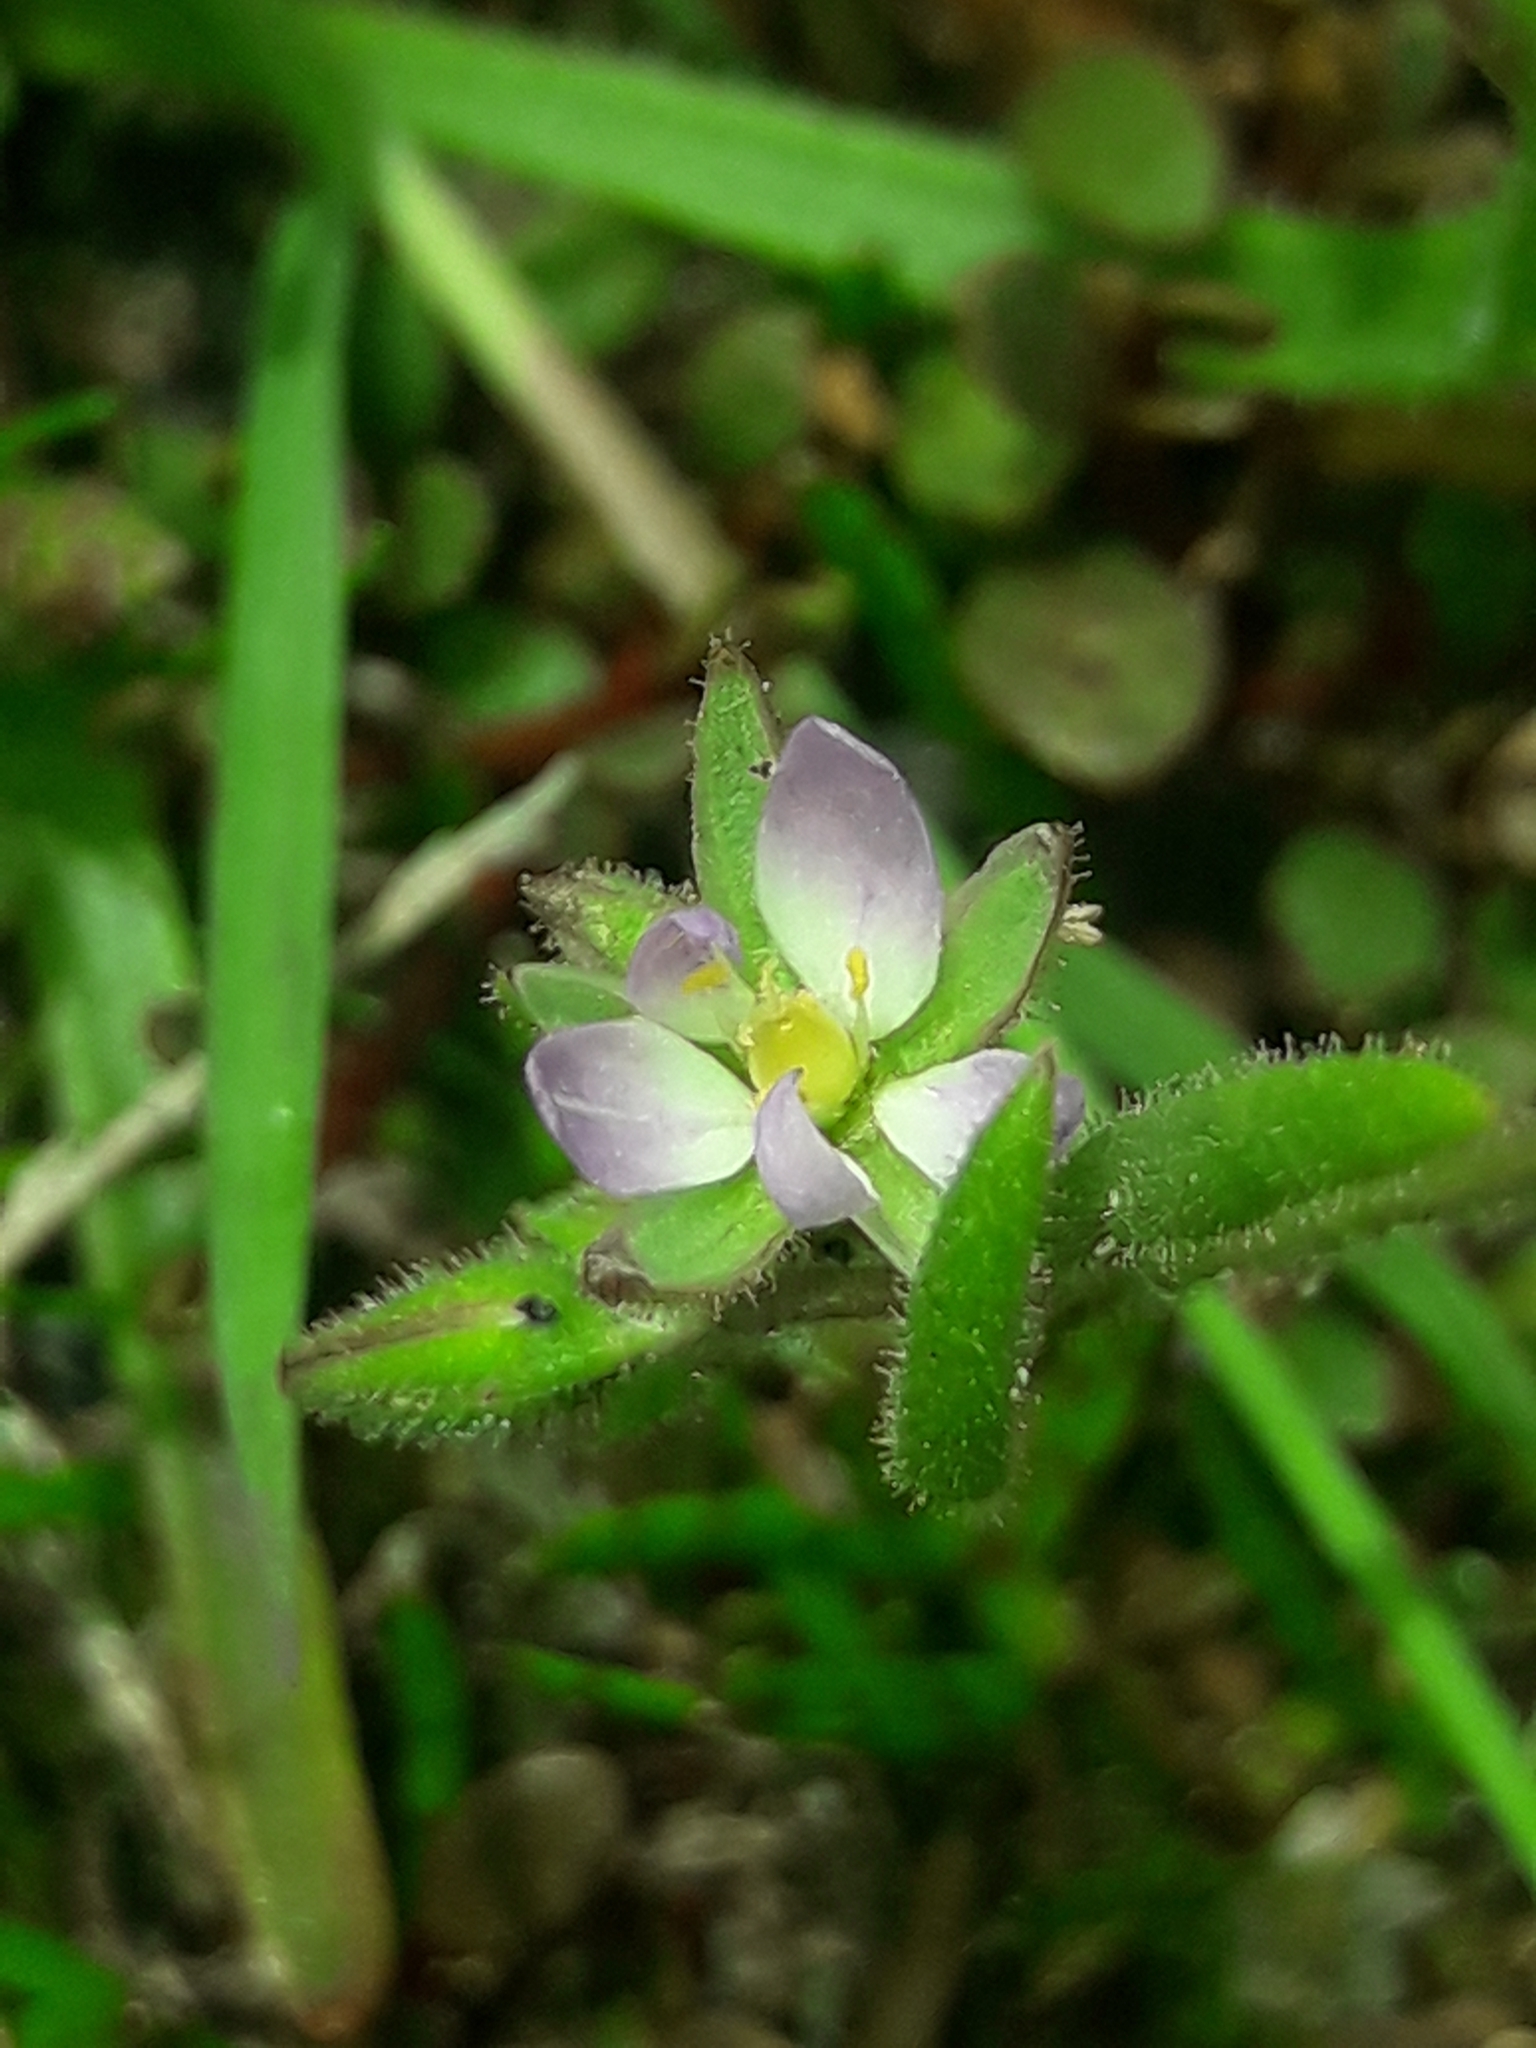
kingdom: Plantae
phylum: Tracheophyta
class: Magnoliopsida
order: Caryophyllales
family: Caryophyllaceae
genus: Spergularia
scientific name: Spergularia marina
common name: Lesser sea-spurrey
